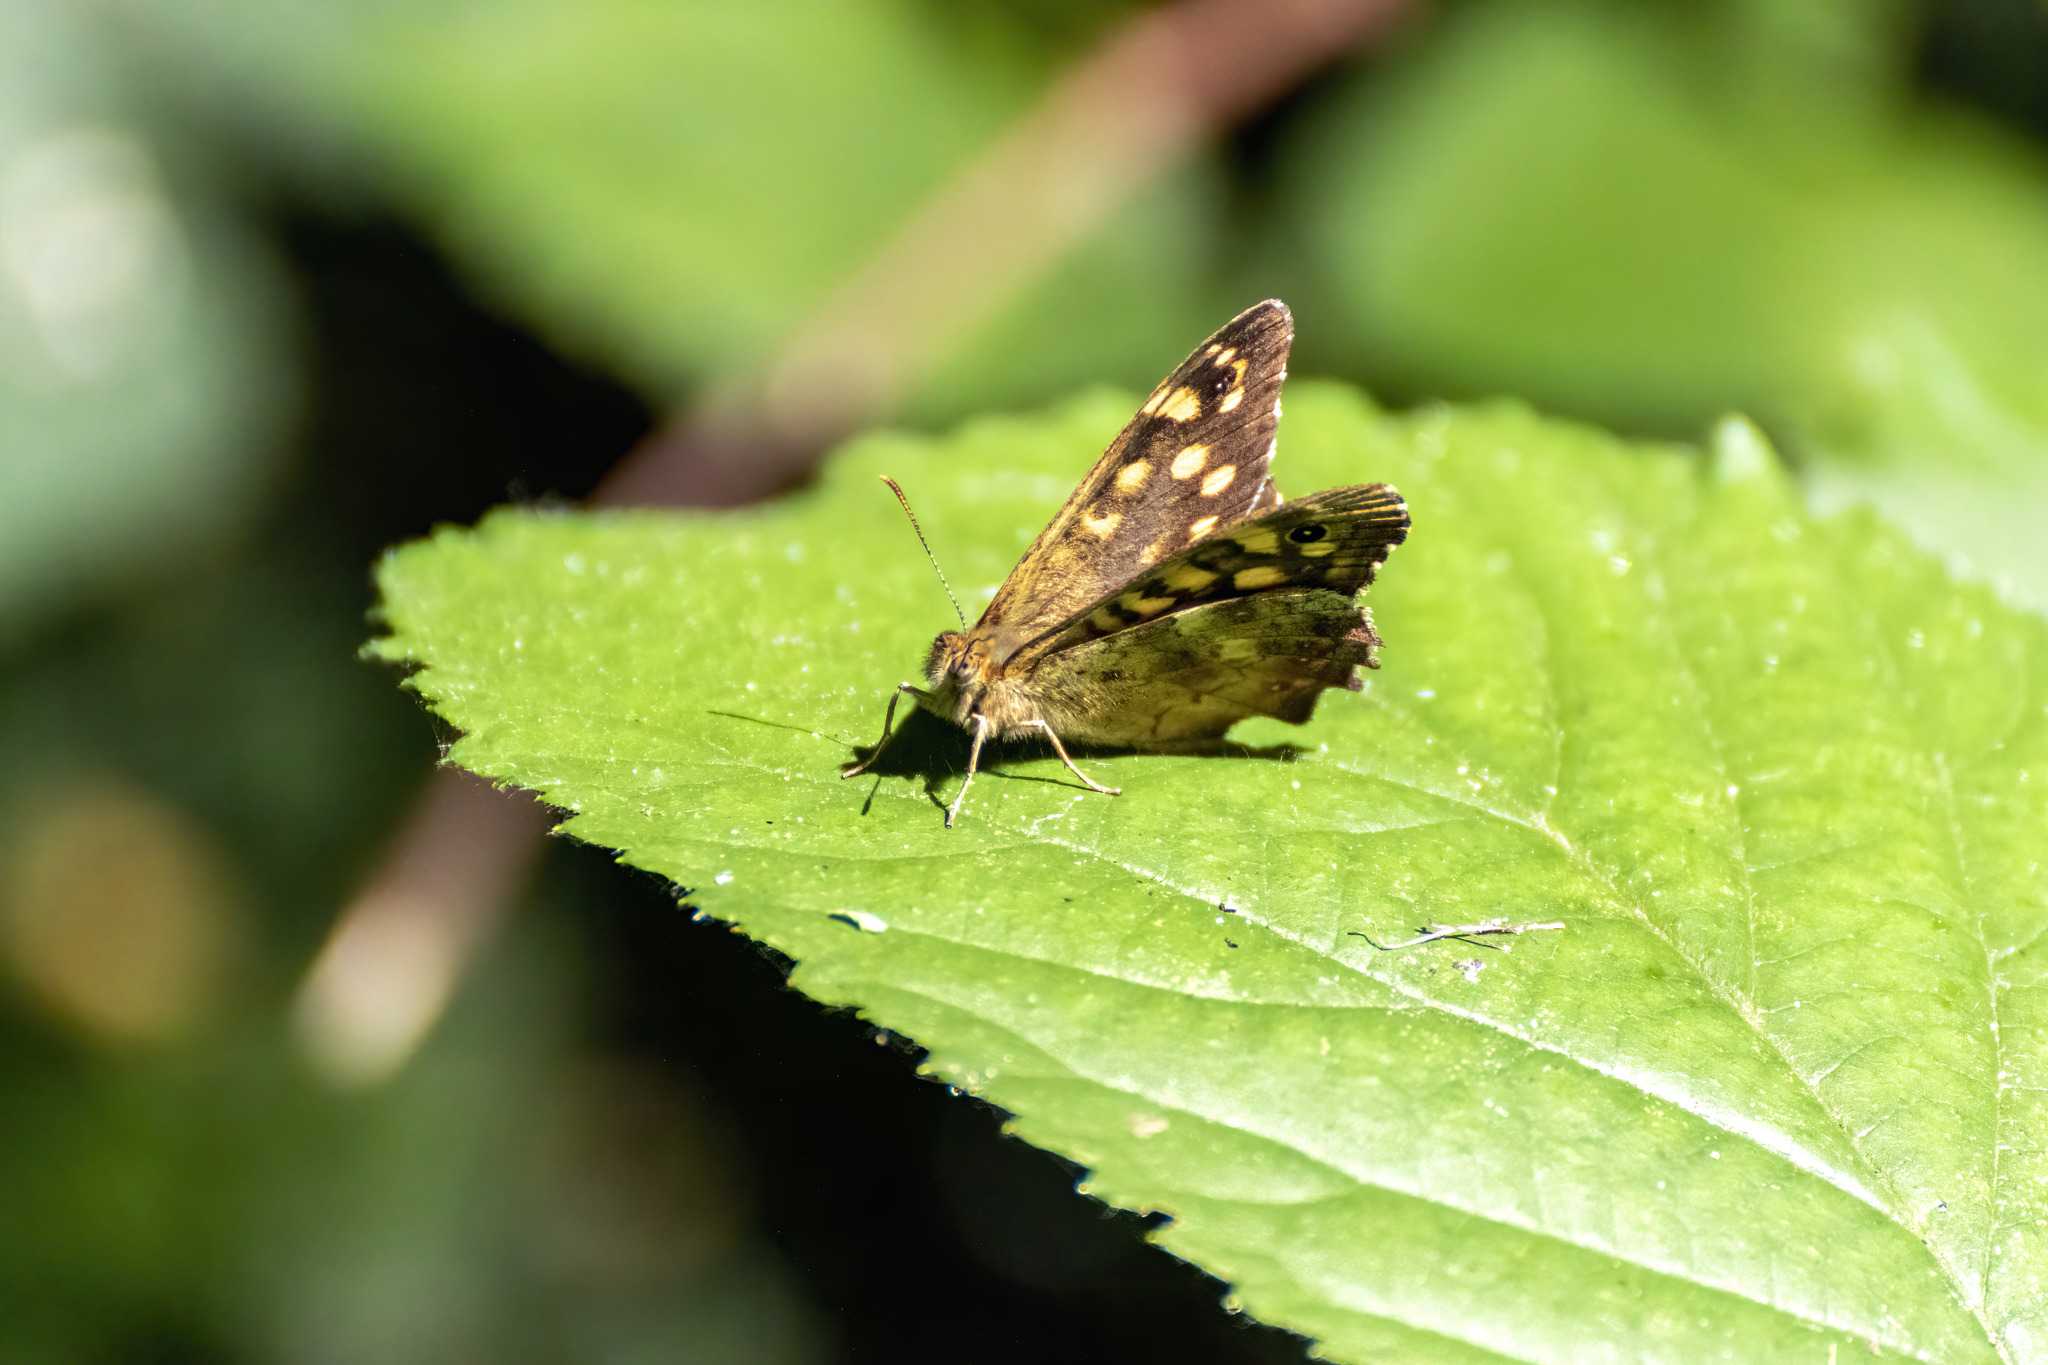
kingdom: Animalia
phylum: Arthropoda
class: Insecta
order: Lepidoptera
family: Nymphalidae
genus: Pararge
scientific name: Pararge aegeria
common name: Speckled wood
